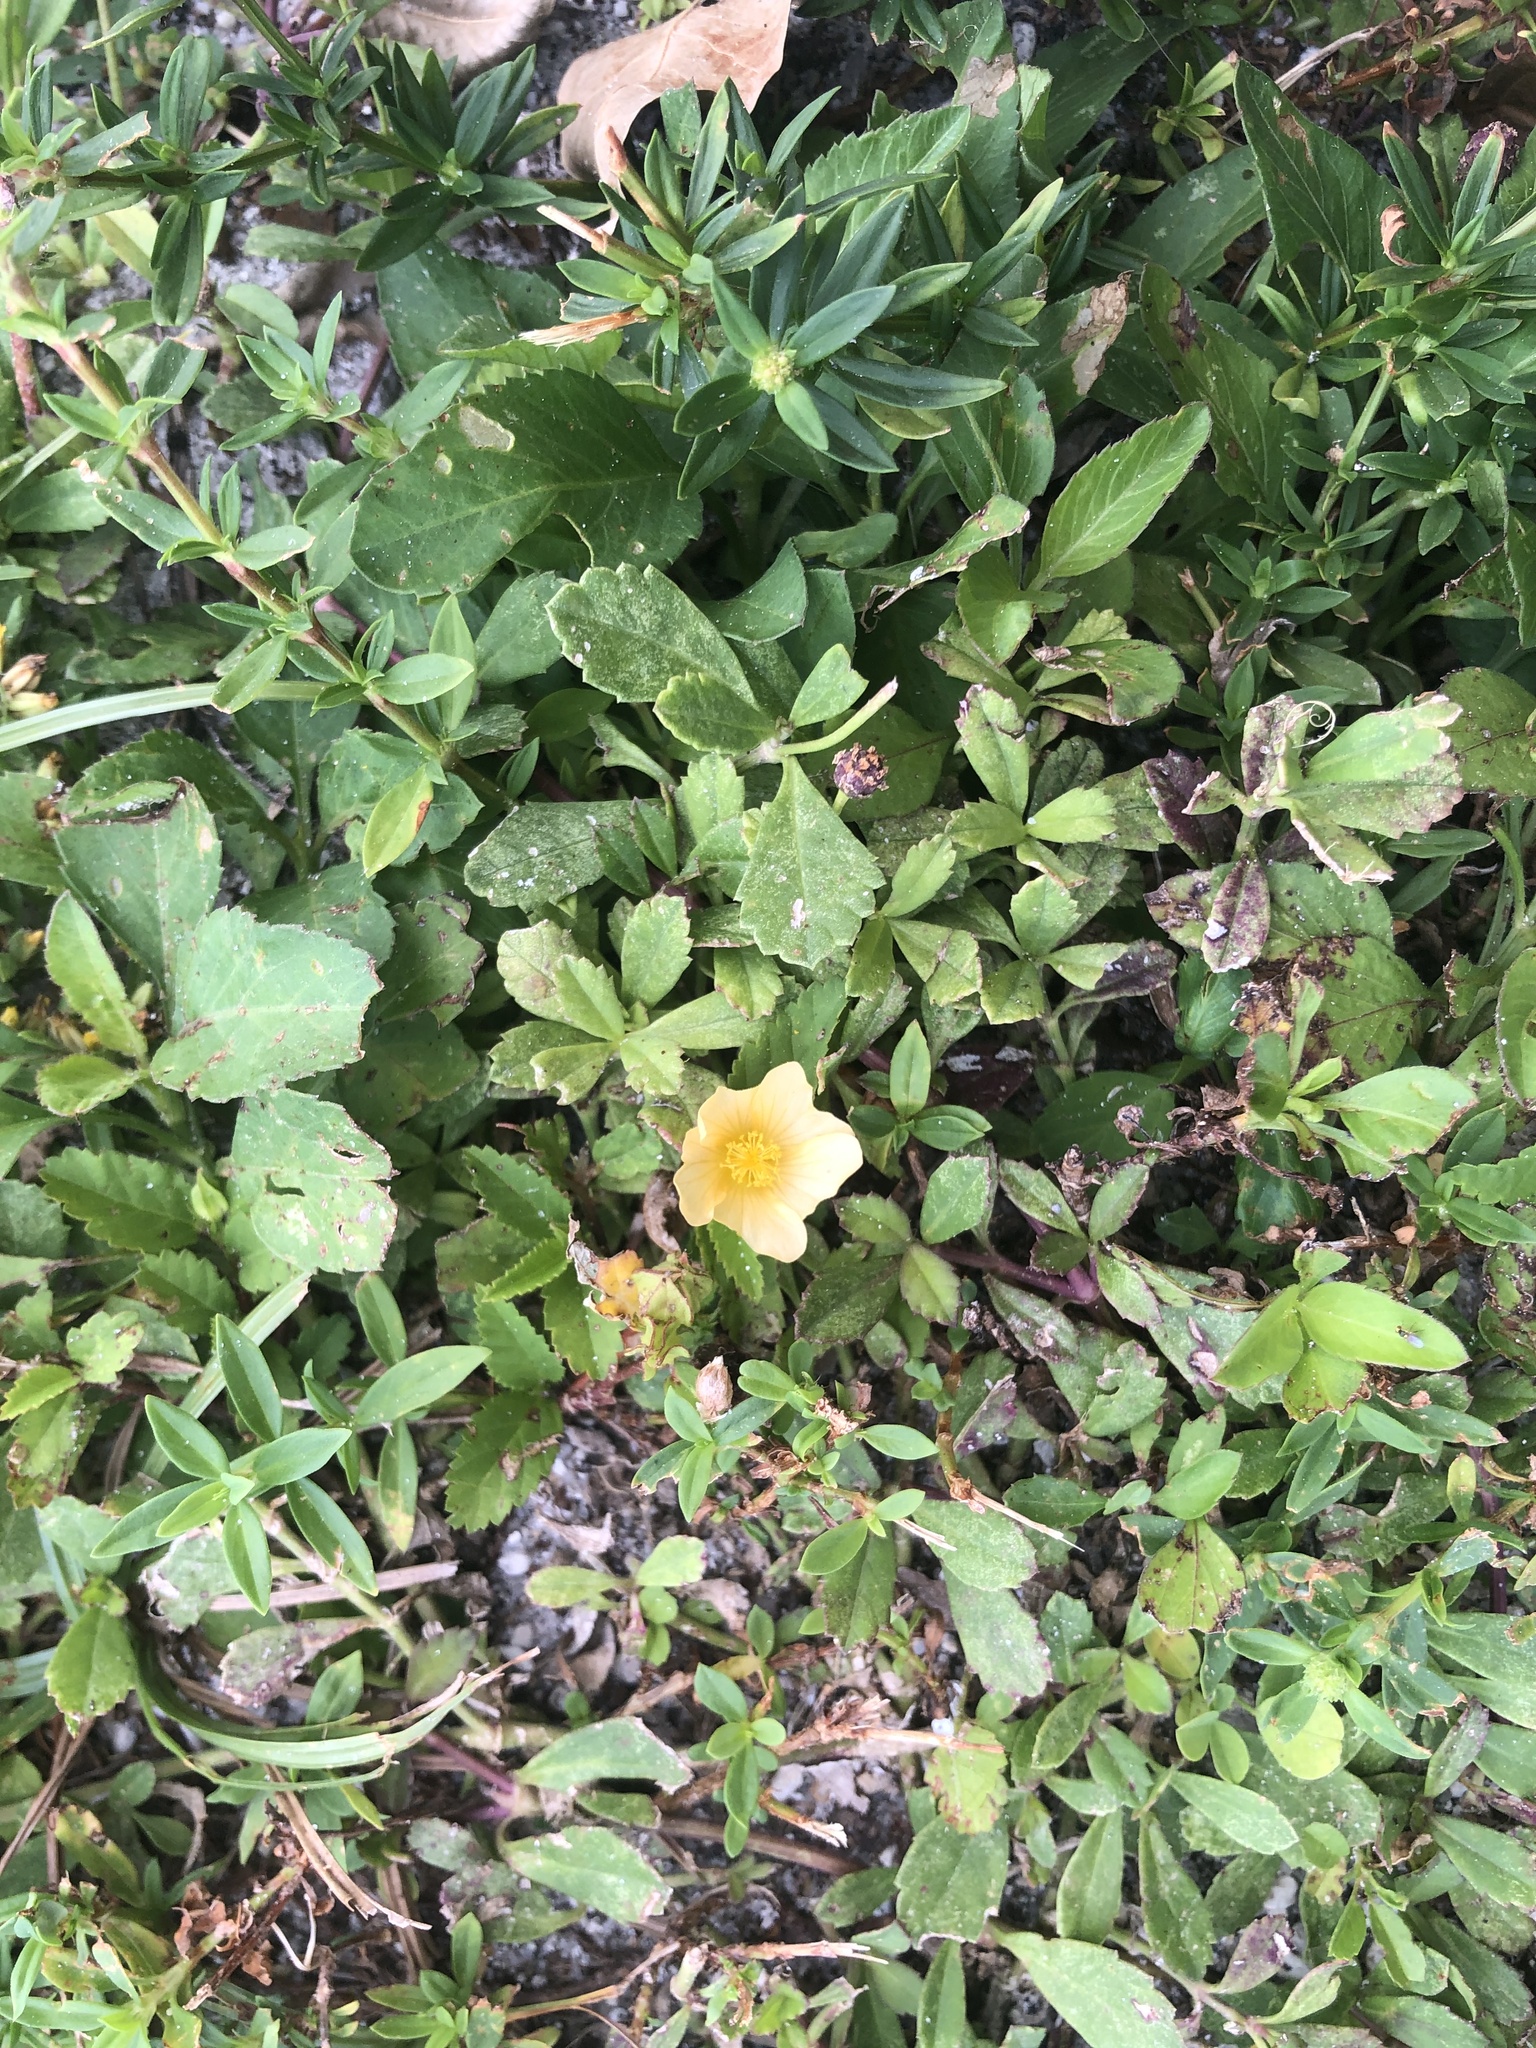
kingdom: Plantae
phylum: Tracheophyta
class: Magnoliopsida
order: Malvales
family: Malvaceae
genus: Sida
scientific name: Sida ulmifolia
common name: Broom weed
